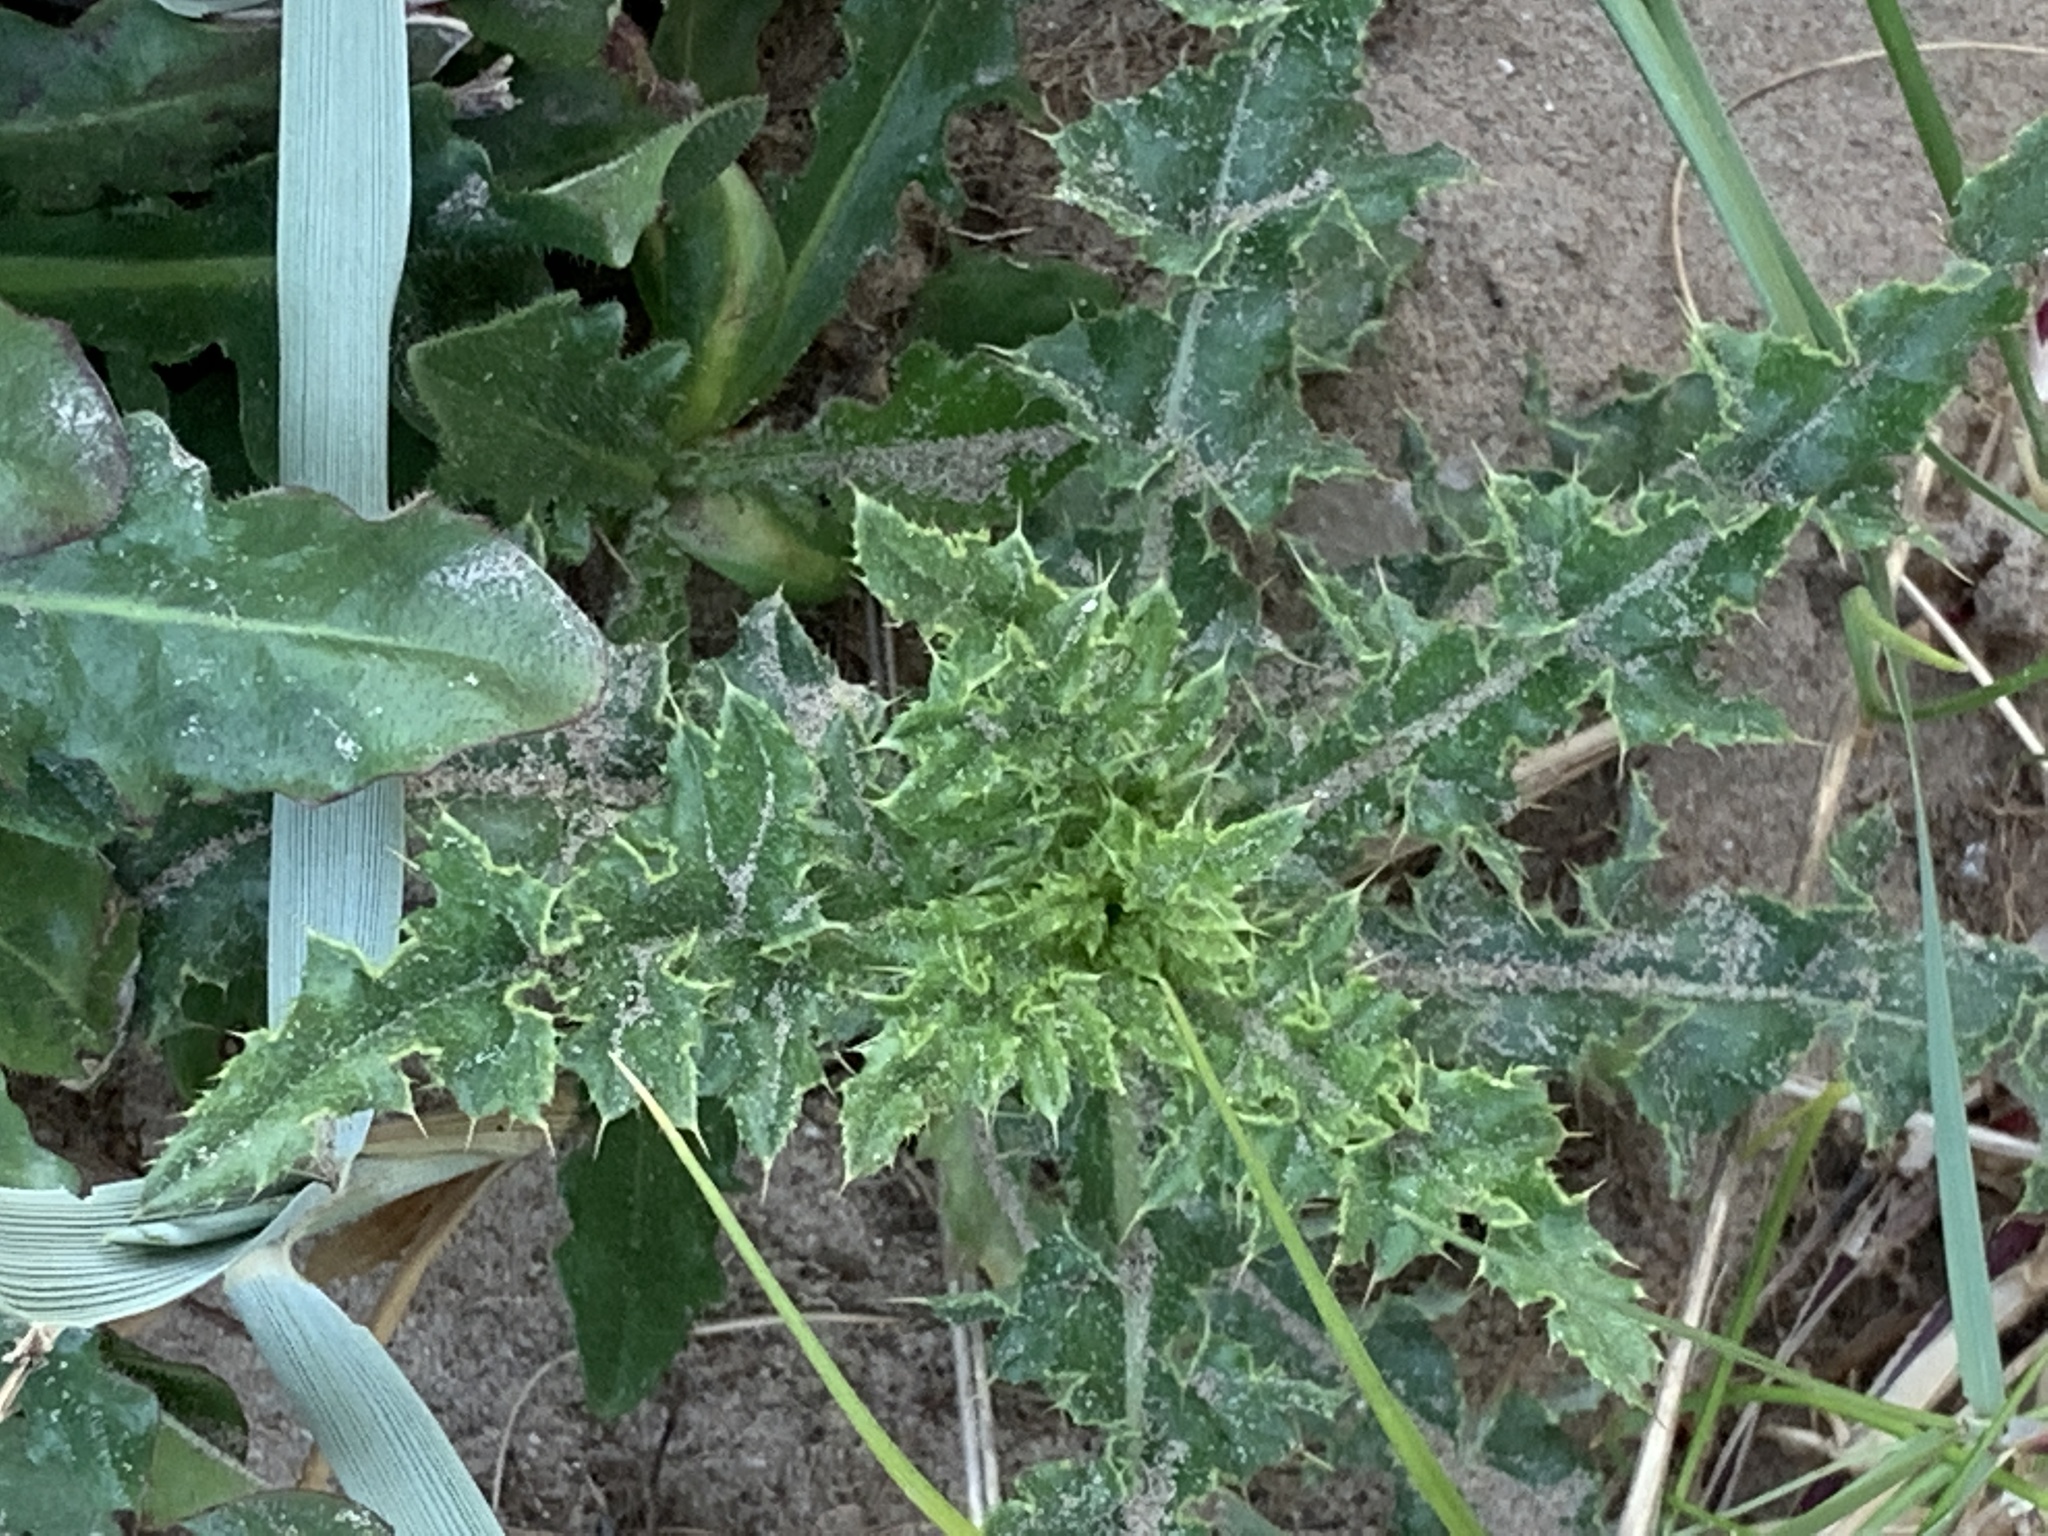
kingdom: Plantae
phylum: Tracheophyta
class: Magnoliopsida
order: Asterales
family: Asteraceae
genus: Cirsium
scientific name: Cirsium arvense
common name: Creeping thistle
